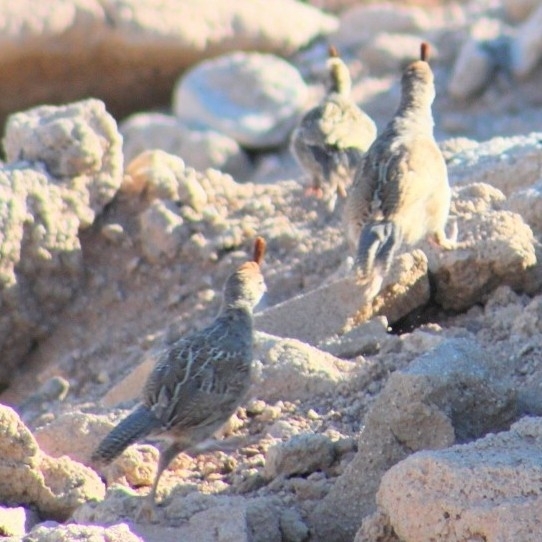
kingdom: Animalia
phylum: Chordata
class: Aves
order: Galliformes
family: Odontophoridae
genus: Callipepla
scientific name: Callipepla gambelii
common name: Gambel's quail
